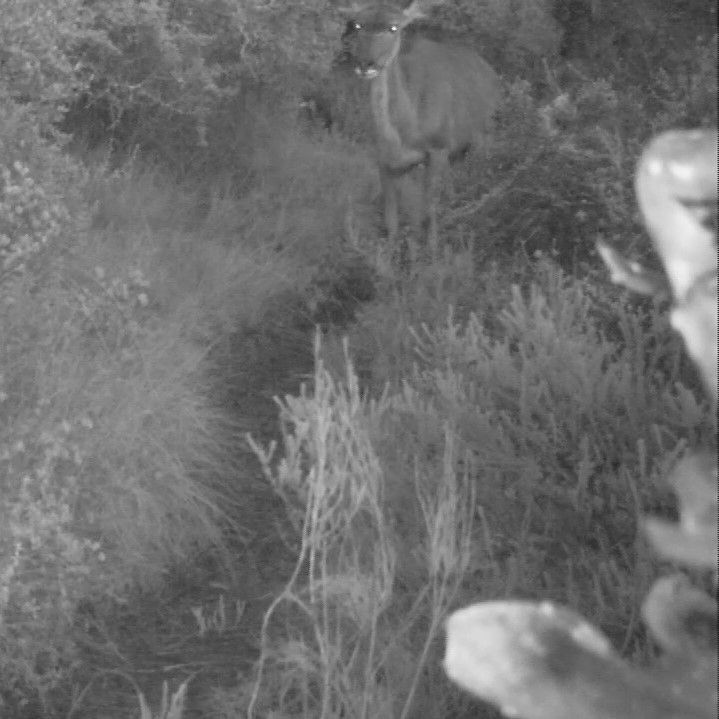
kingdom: Animalia
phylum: Chordata
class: Mammalia
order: Artiodactyla
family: Bovidae
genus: Tragelaphus
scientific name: Tragelaphus strepsiceros
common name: Greater kudu
